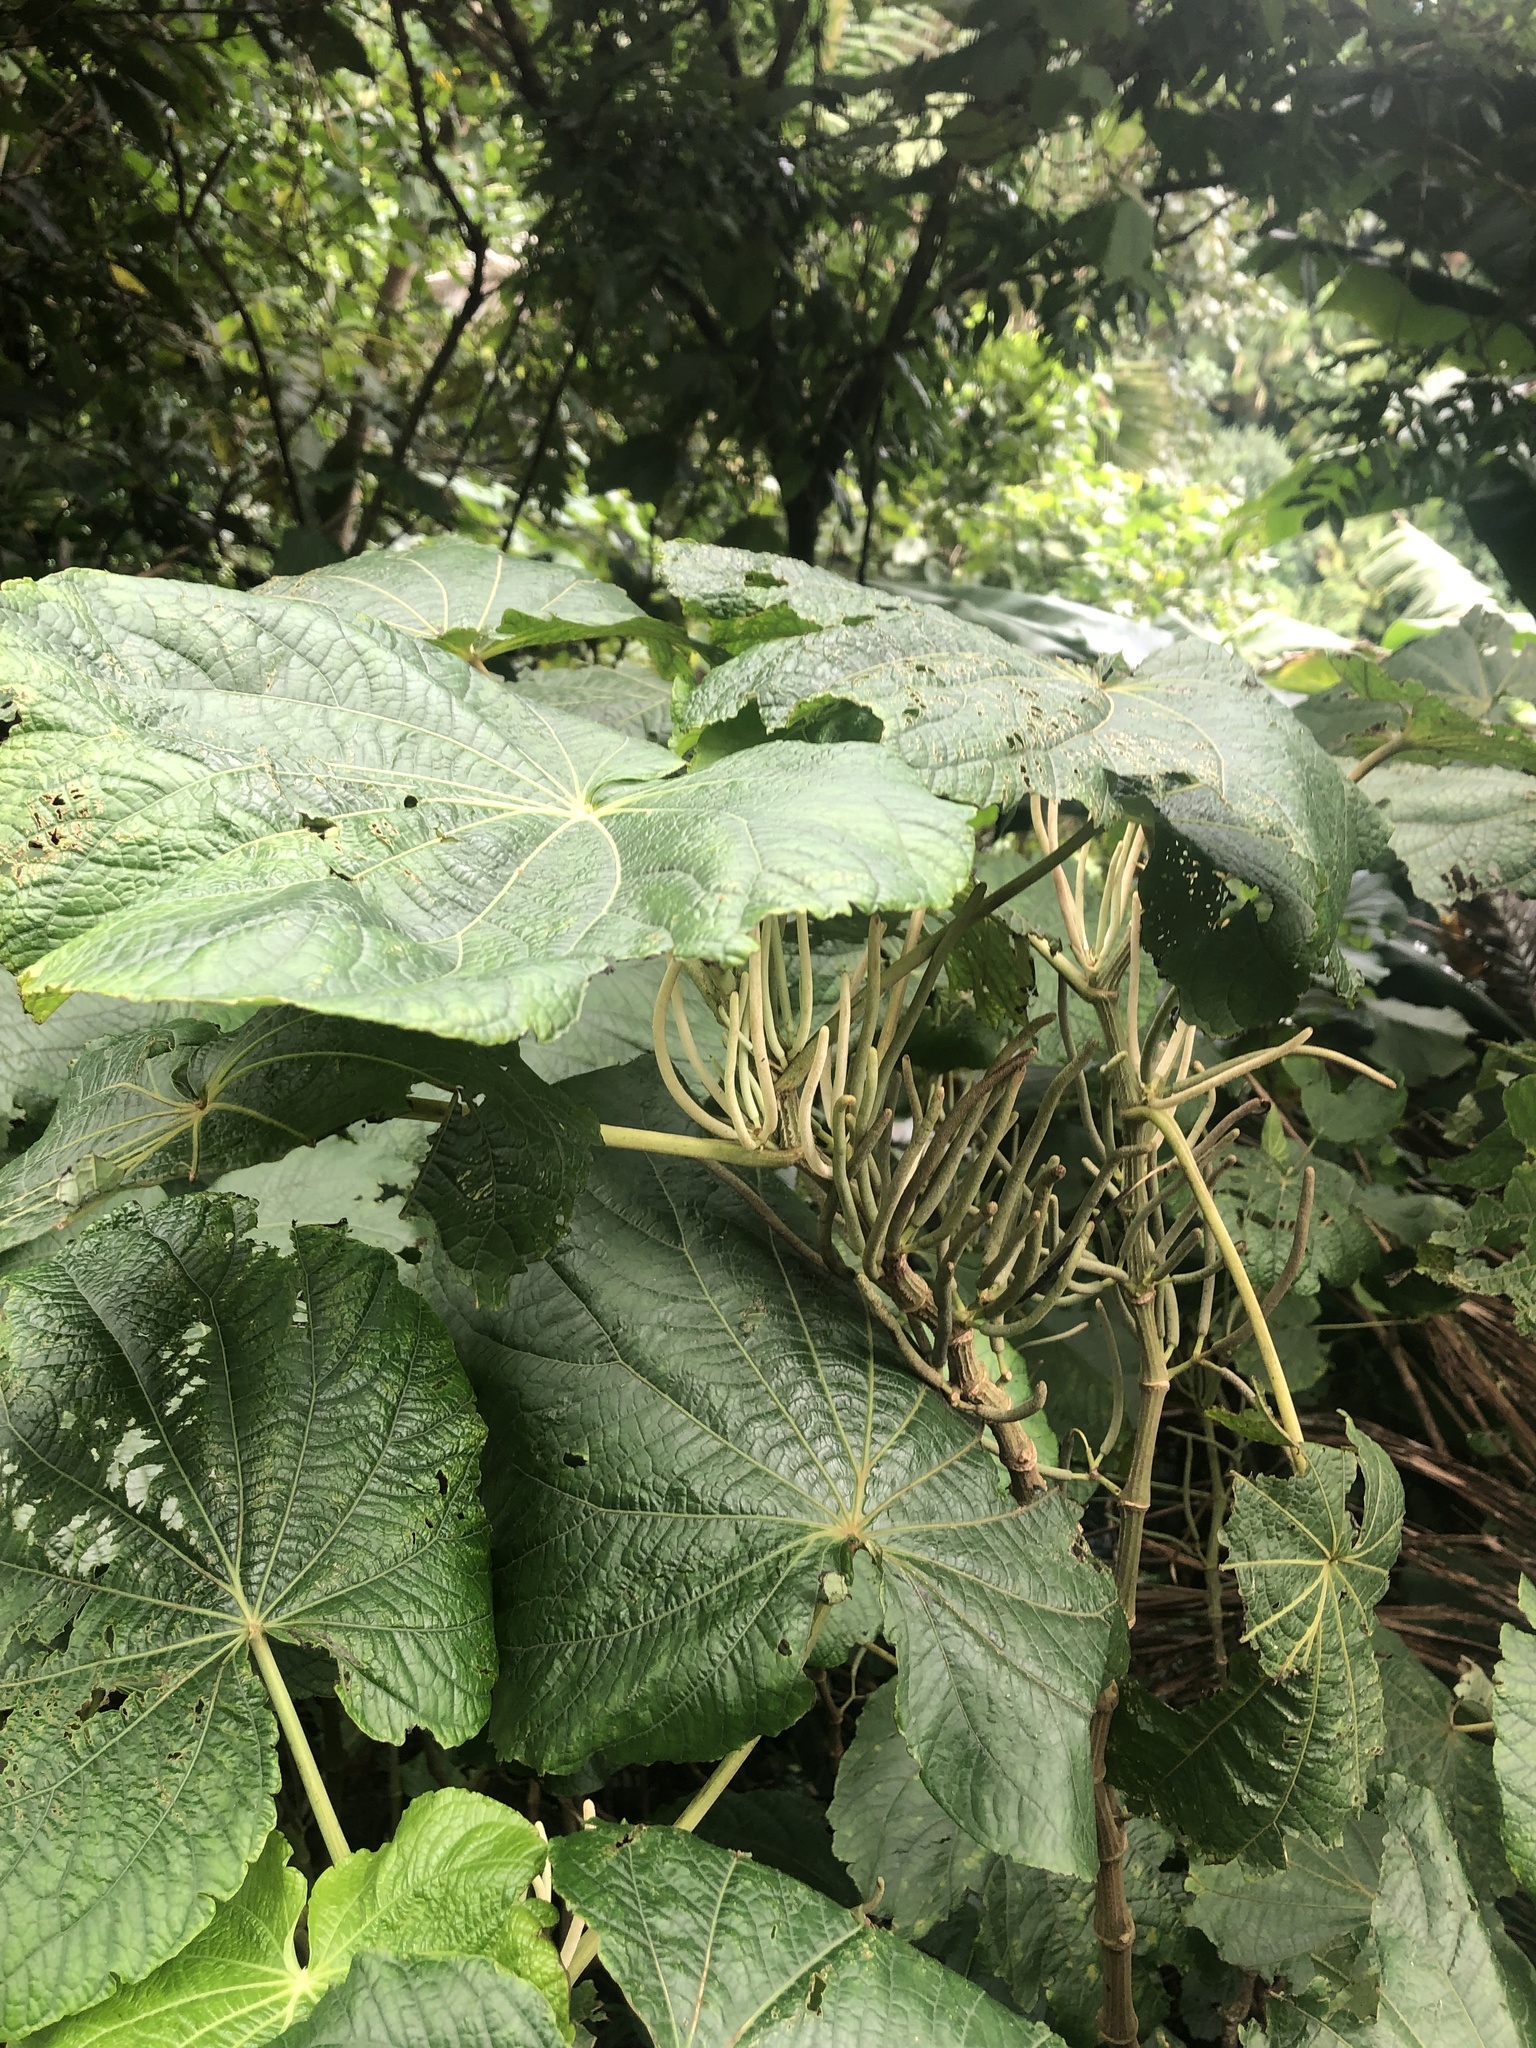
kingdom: Plantae
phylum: Tracheophyta
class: Magnoliopsida
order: Piperales
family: Piperaceae
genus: Piper
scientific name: Piper umbellatum
